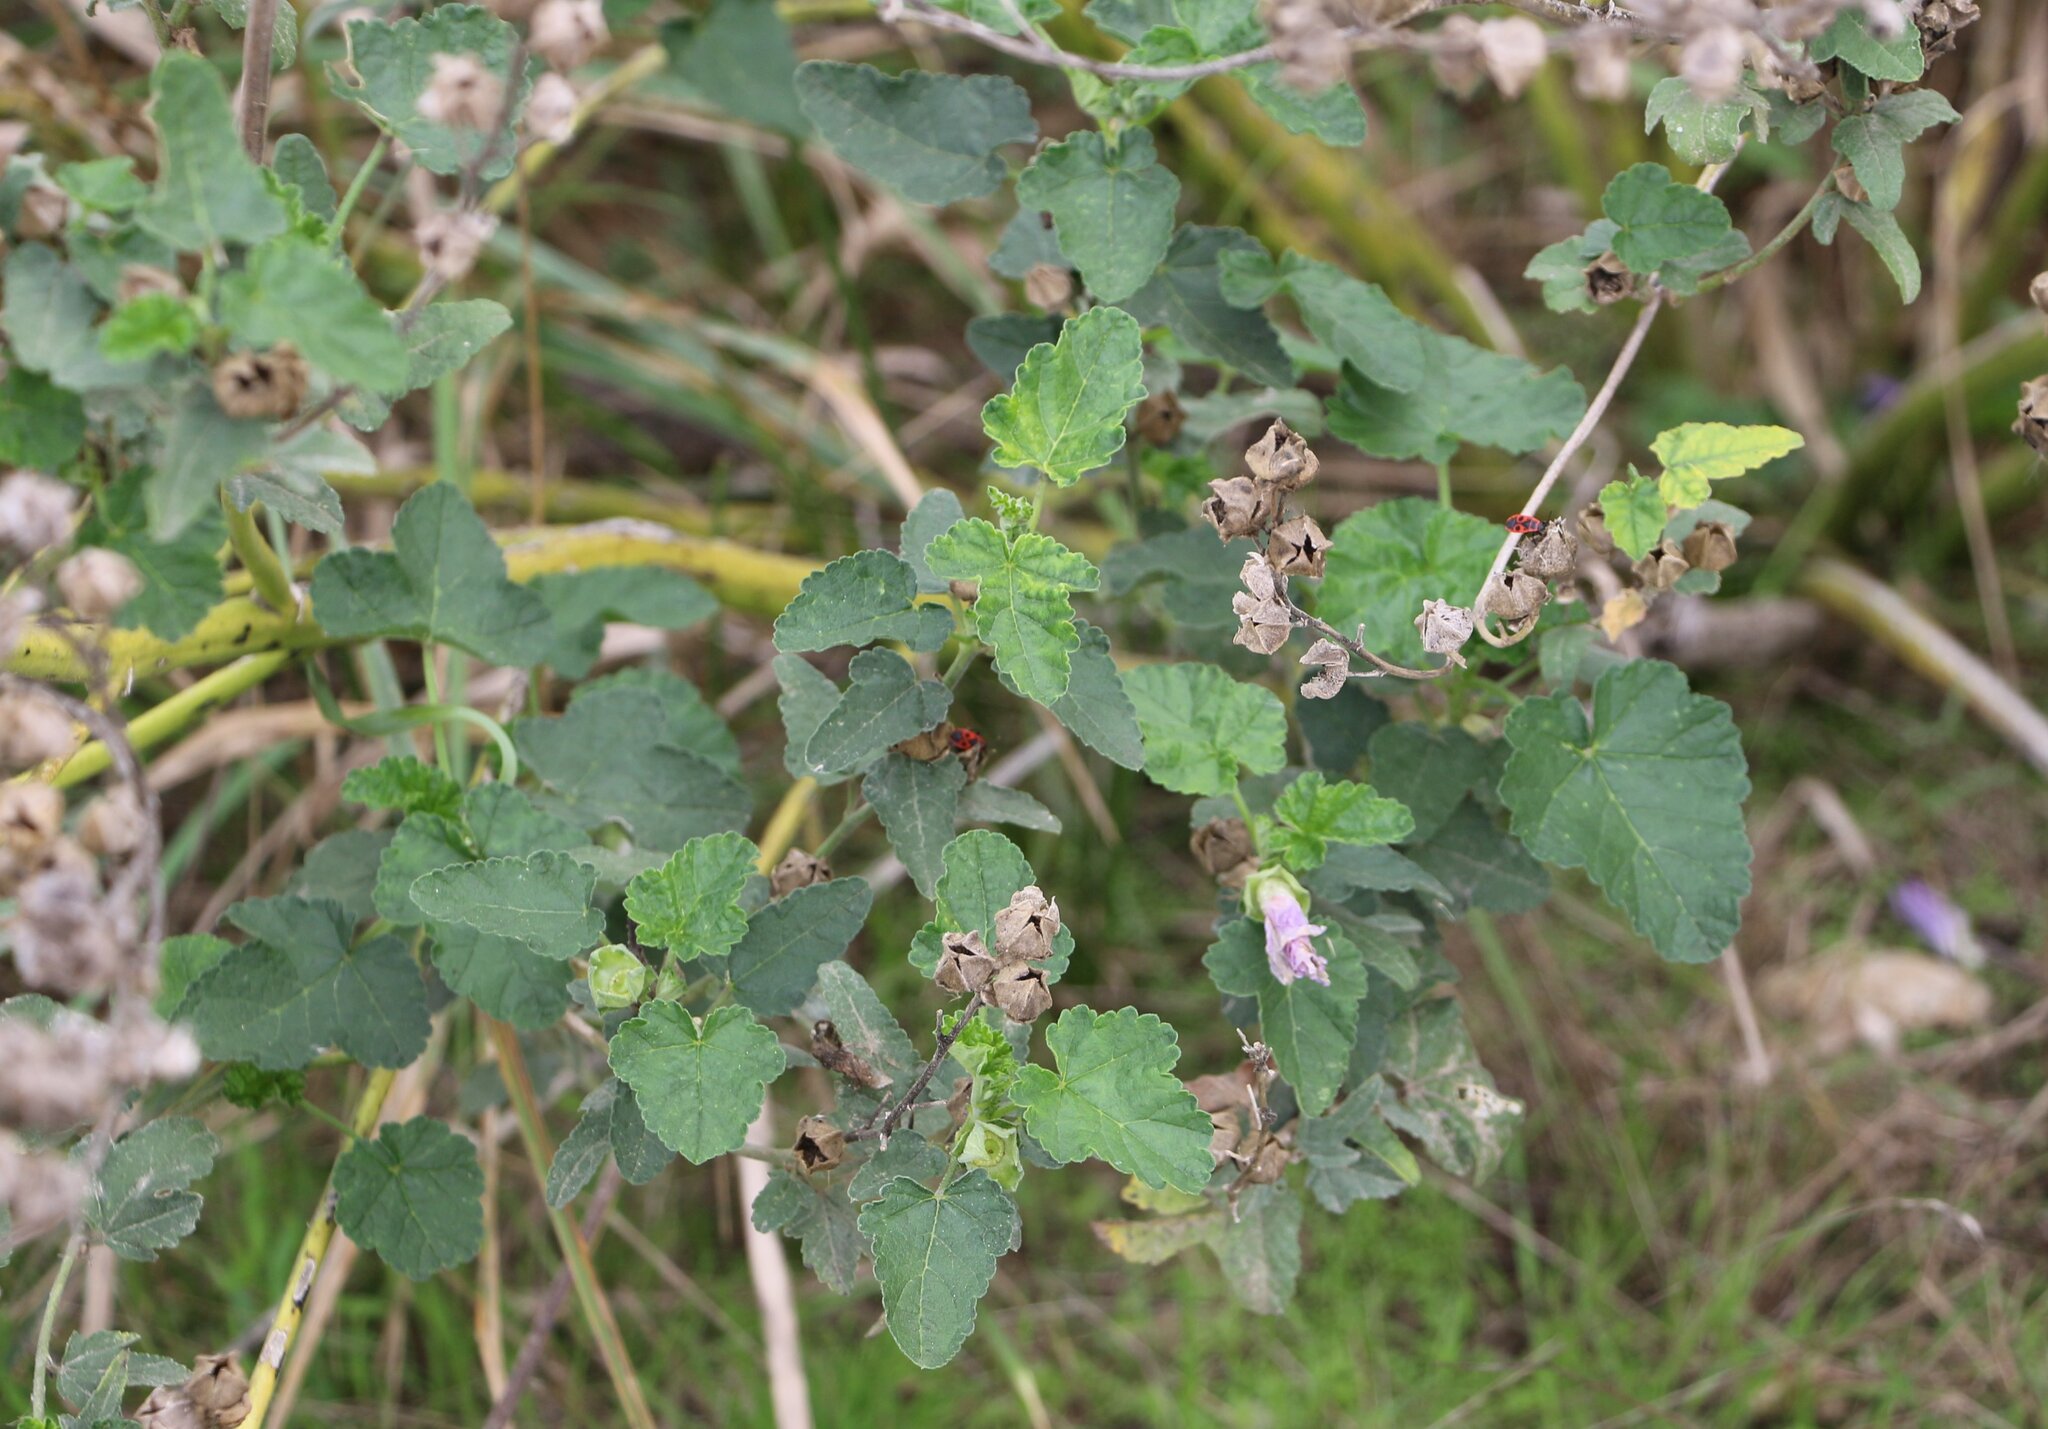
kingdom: Plantae
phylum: Tracheophyta
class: Magnoliopsida
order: Malvales
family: Malvaceae
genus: Malva
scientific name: Malva thuringiaca
